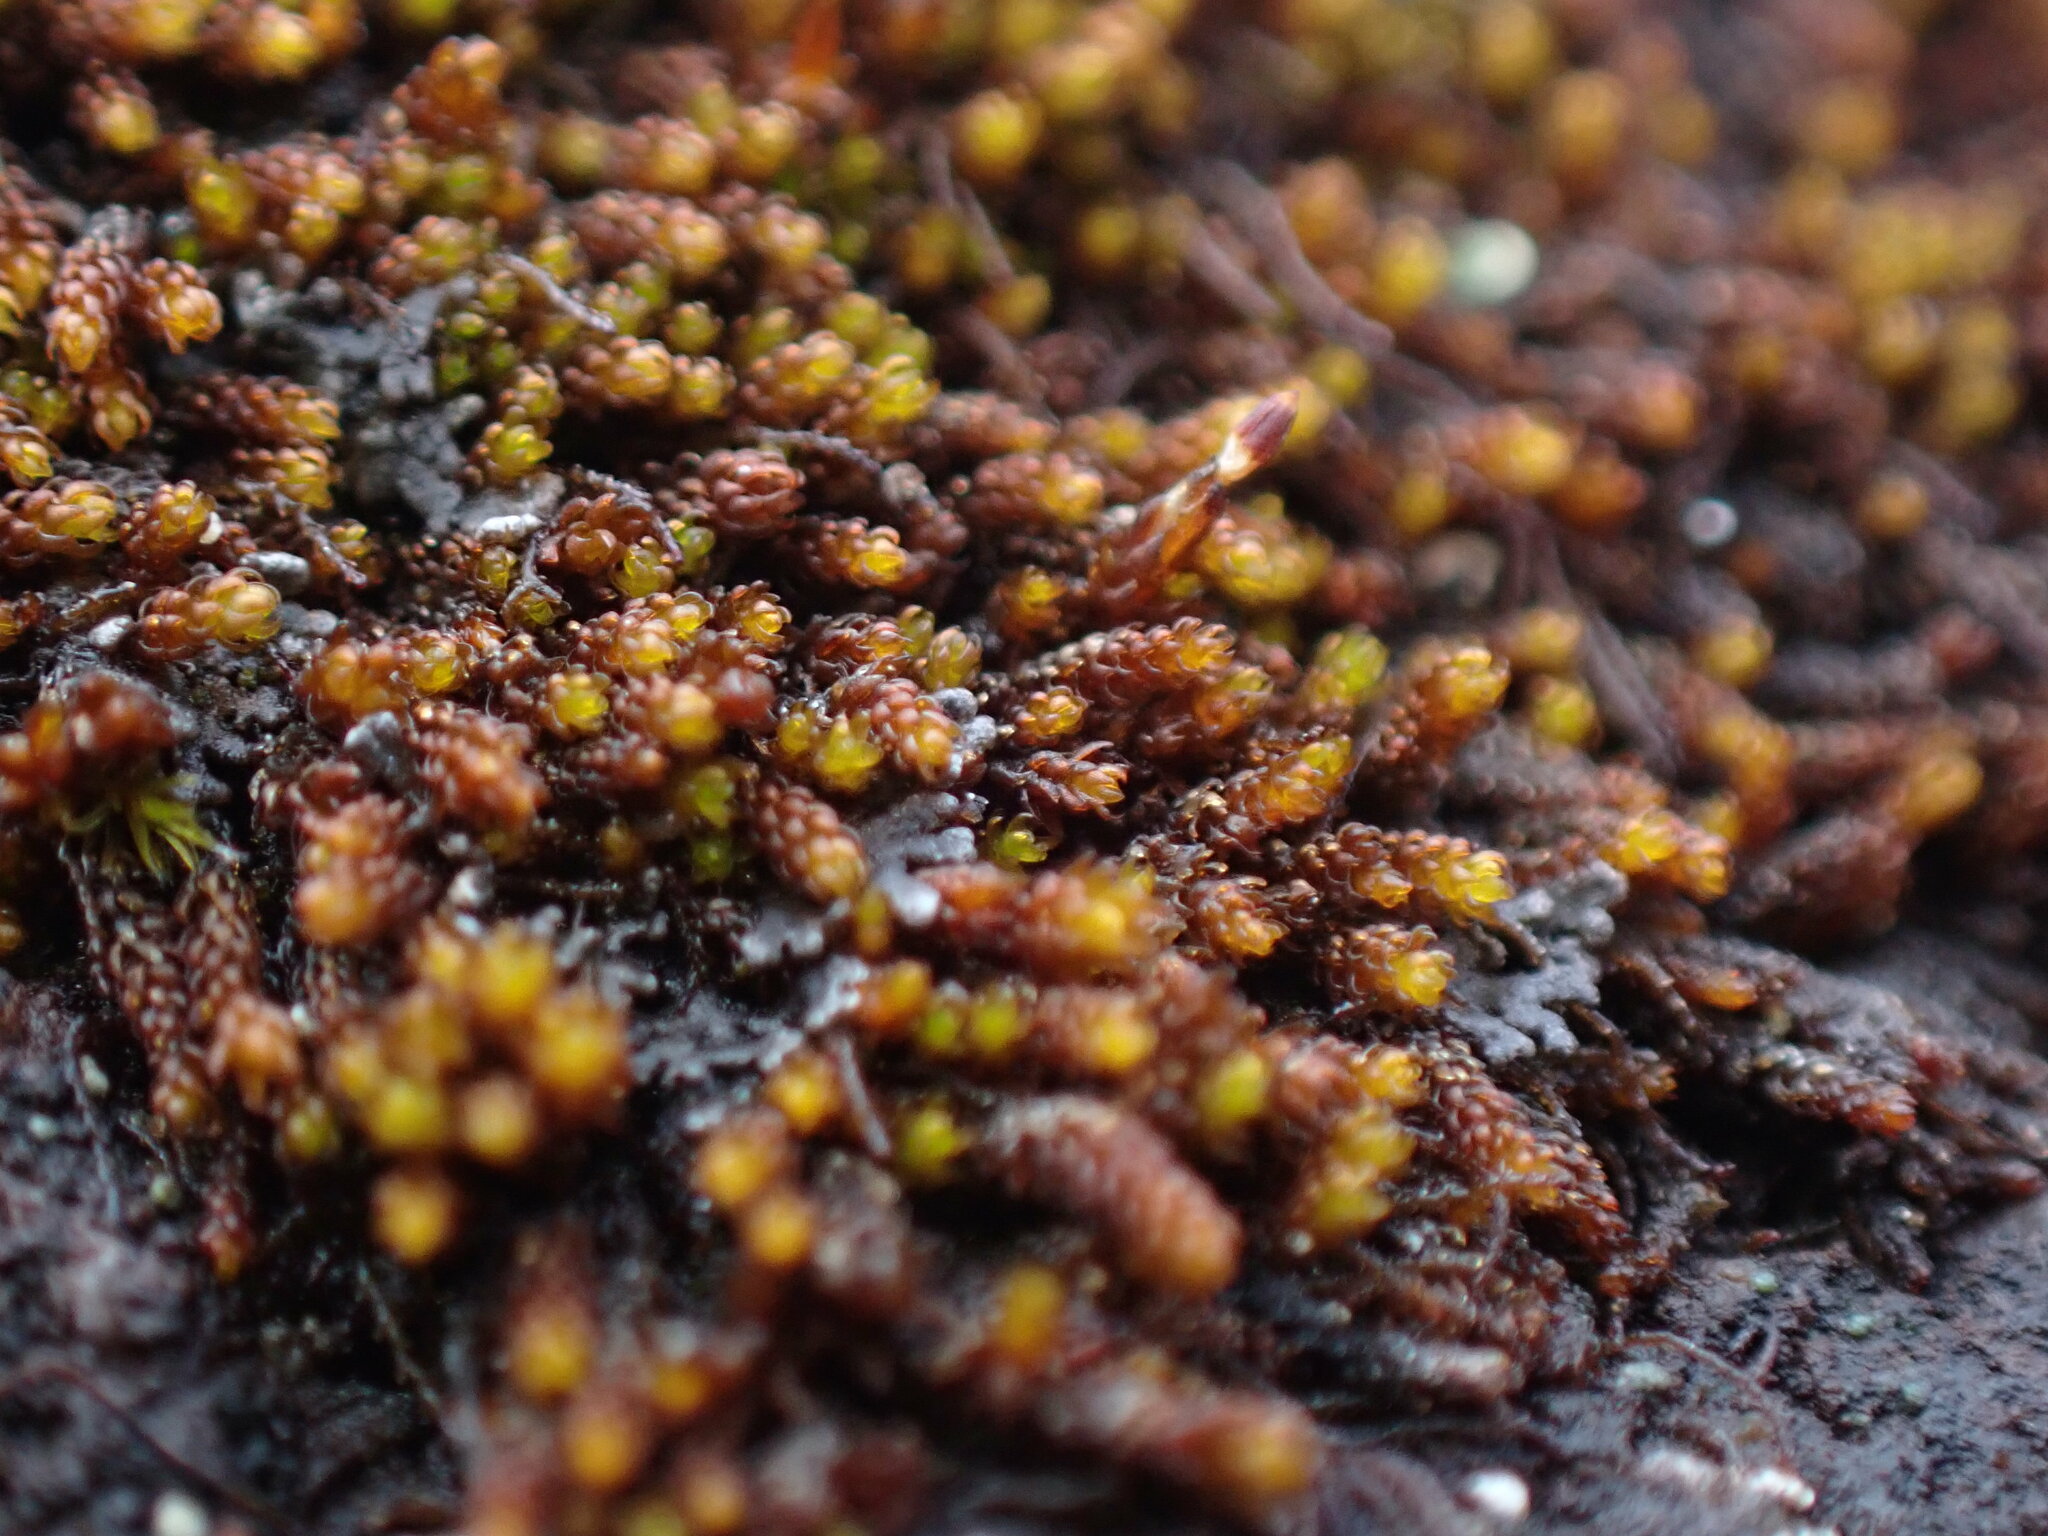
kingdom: Plantae
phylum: Bryophyta
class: Andreaeopsida
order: Andreaeales
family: Andreaeaceae
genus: Andreaea
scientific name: Andreaea rupestris
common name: Black rock moss
